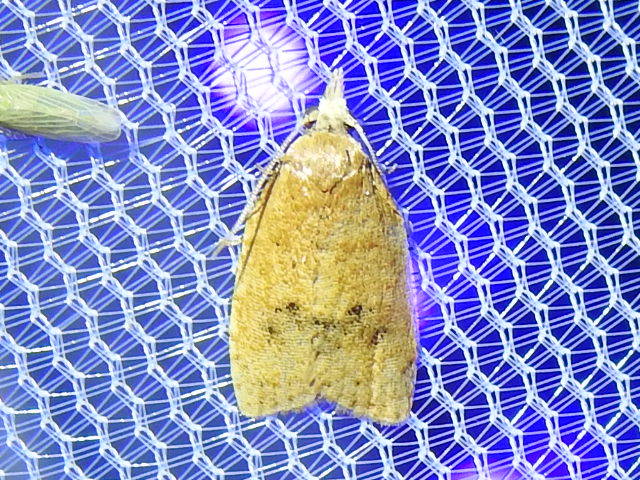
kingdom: Animalia
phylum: Arthropoda
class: Insecta
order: Lepidoptera
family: Tortricidae
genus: Sparganothoides
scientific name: Sparganothoides lentiginosana
